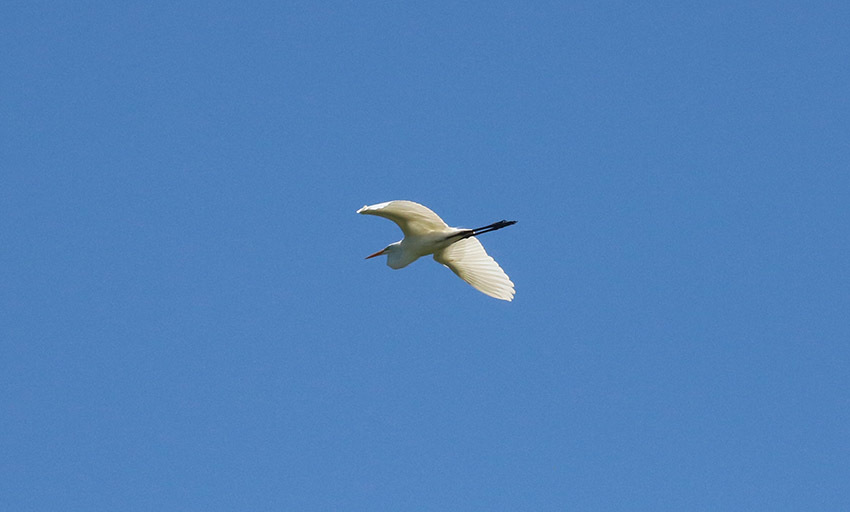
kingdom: Animalia
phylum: Chordata
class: Aves
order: Pelecaniformes
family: Ardeidae
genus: Ardea
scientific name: Ardea alba
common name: Great egret
